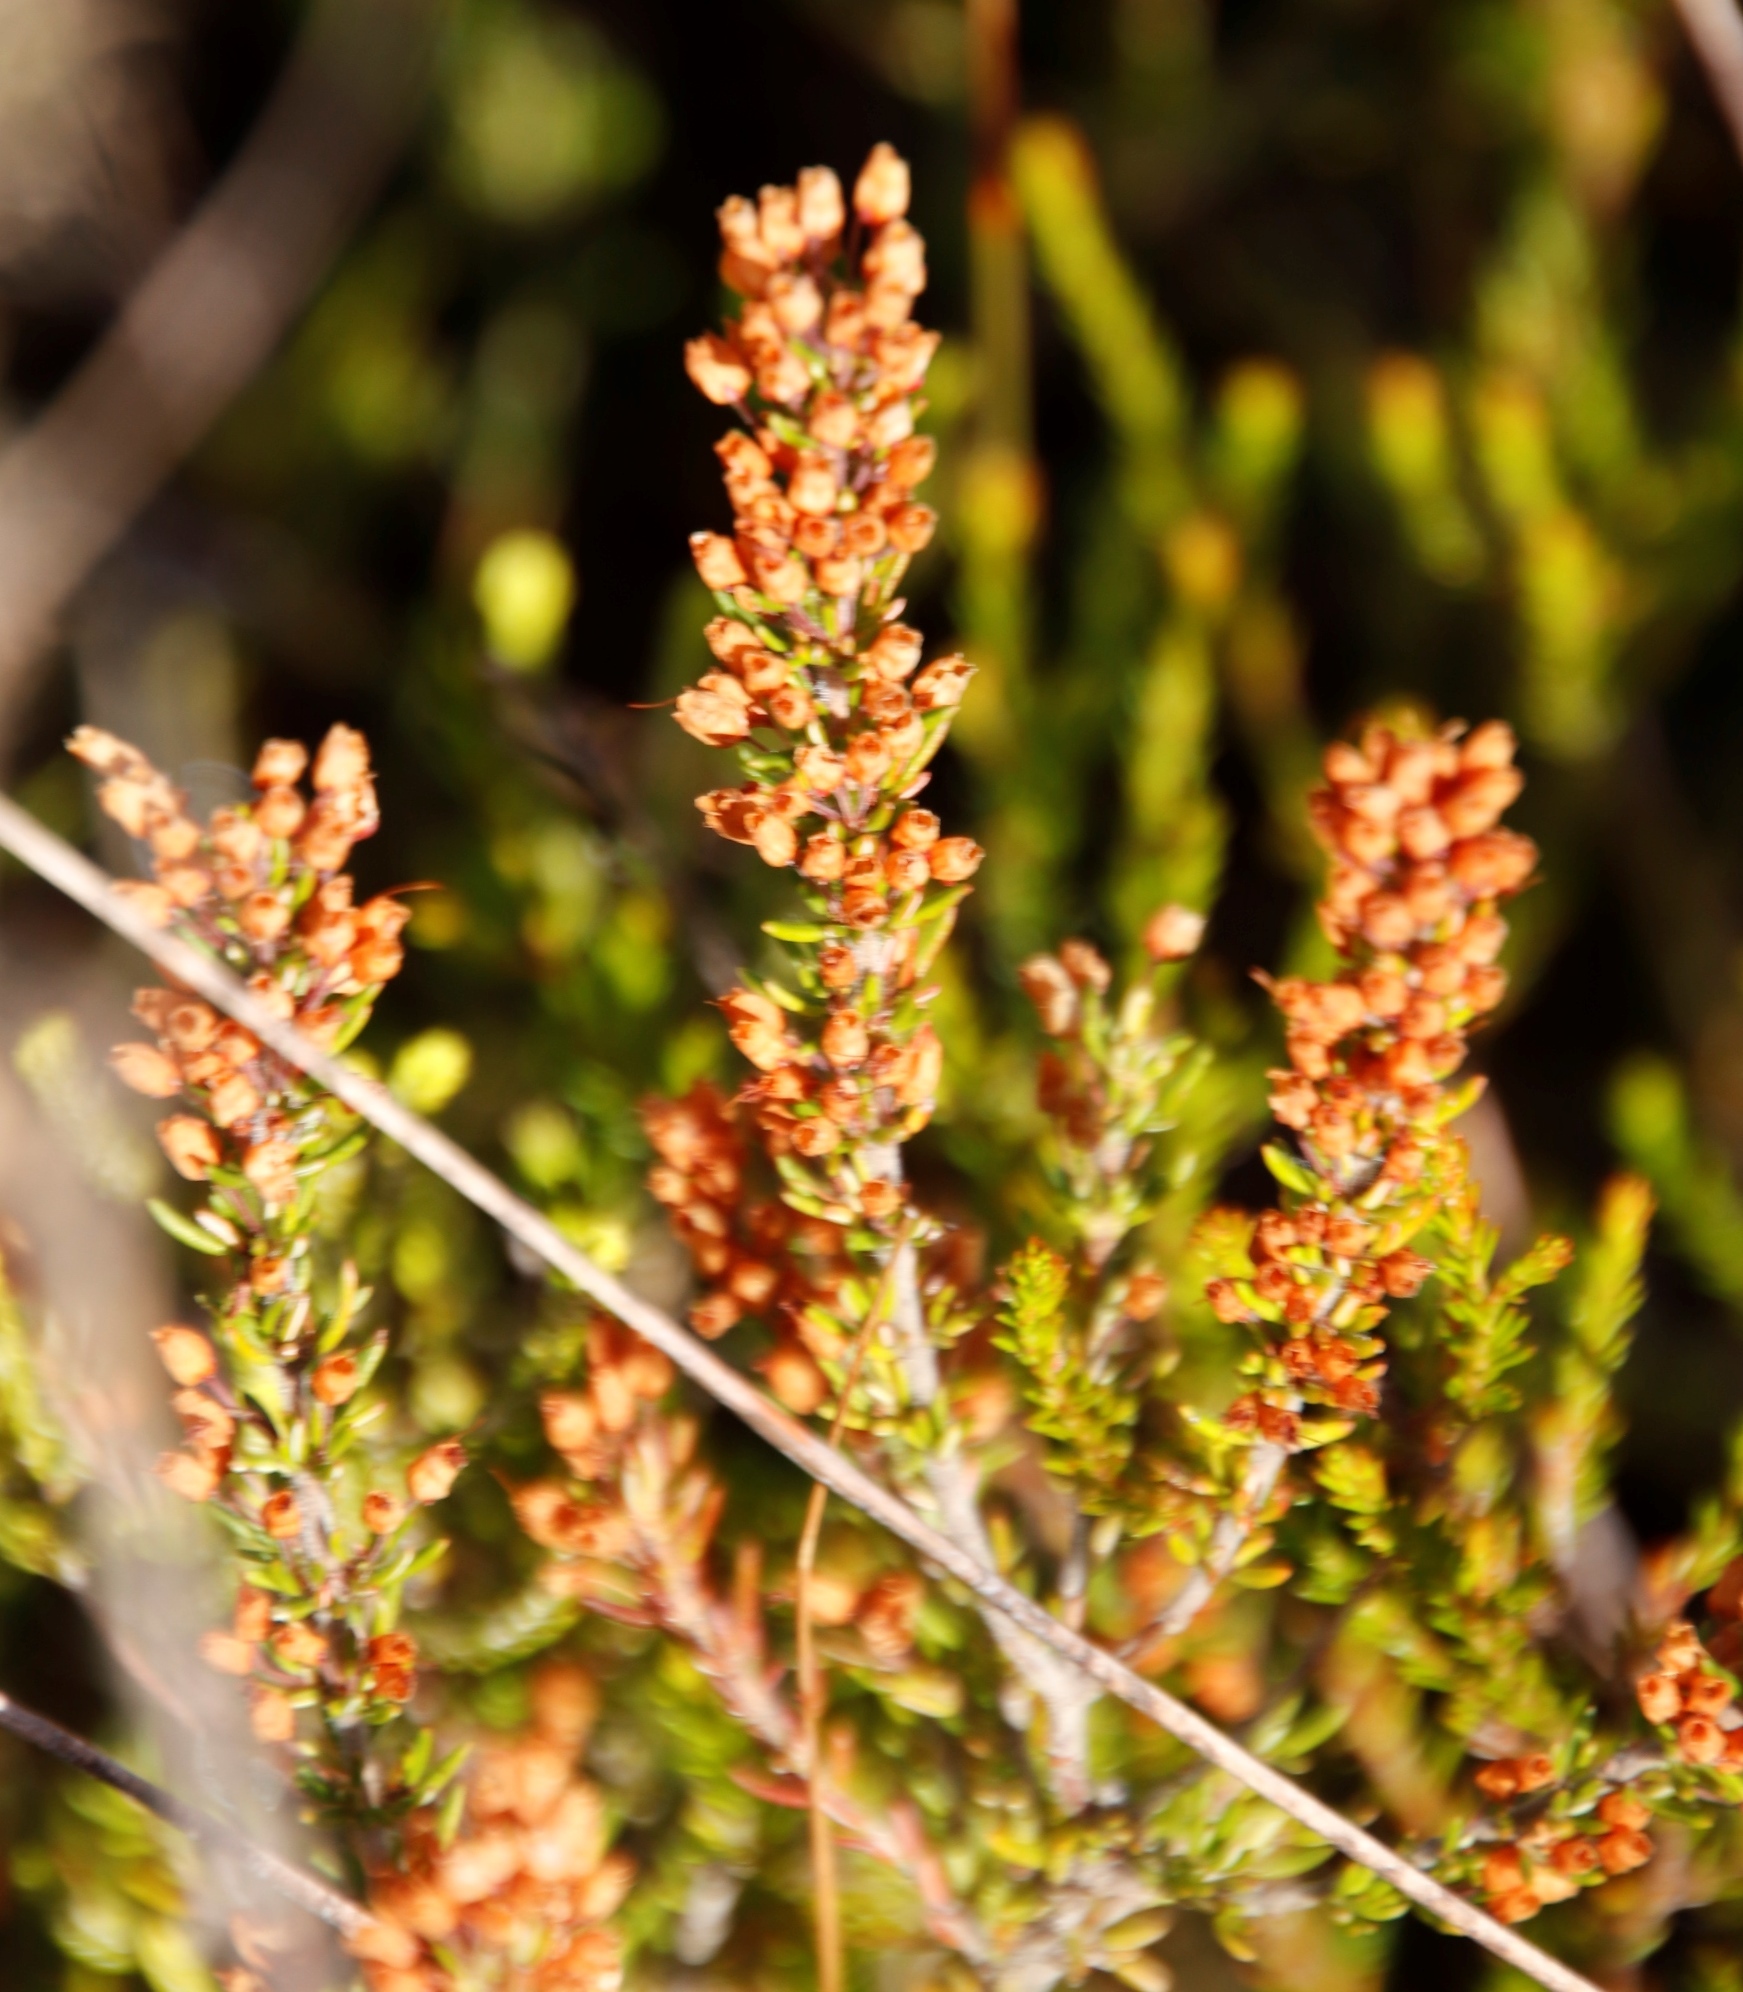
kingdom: Plantae
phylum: Tracheophyta
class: Magnoliopsida
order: Ericales
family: Ericaceae
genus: Erica
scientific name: Erica nudiflora
